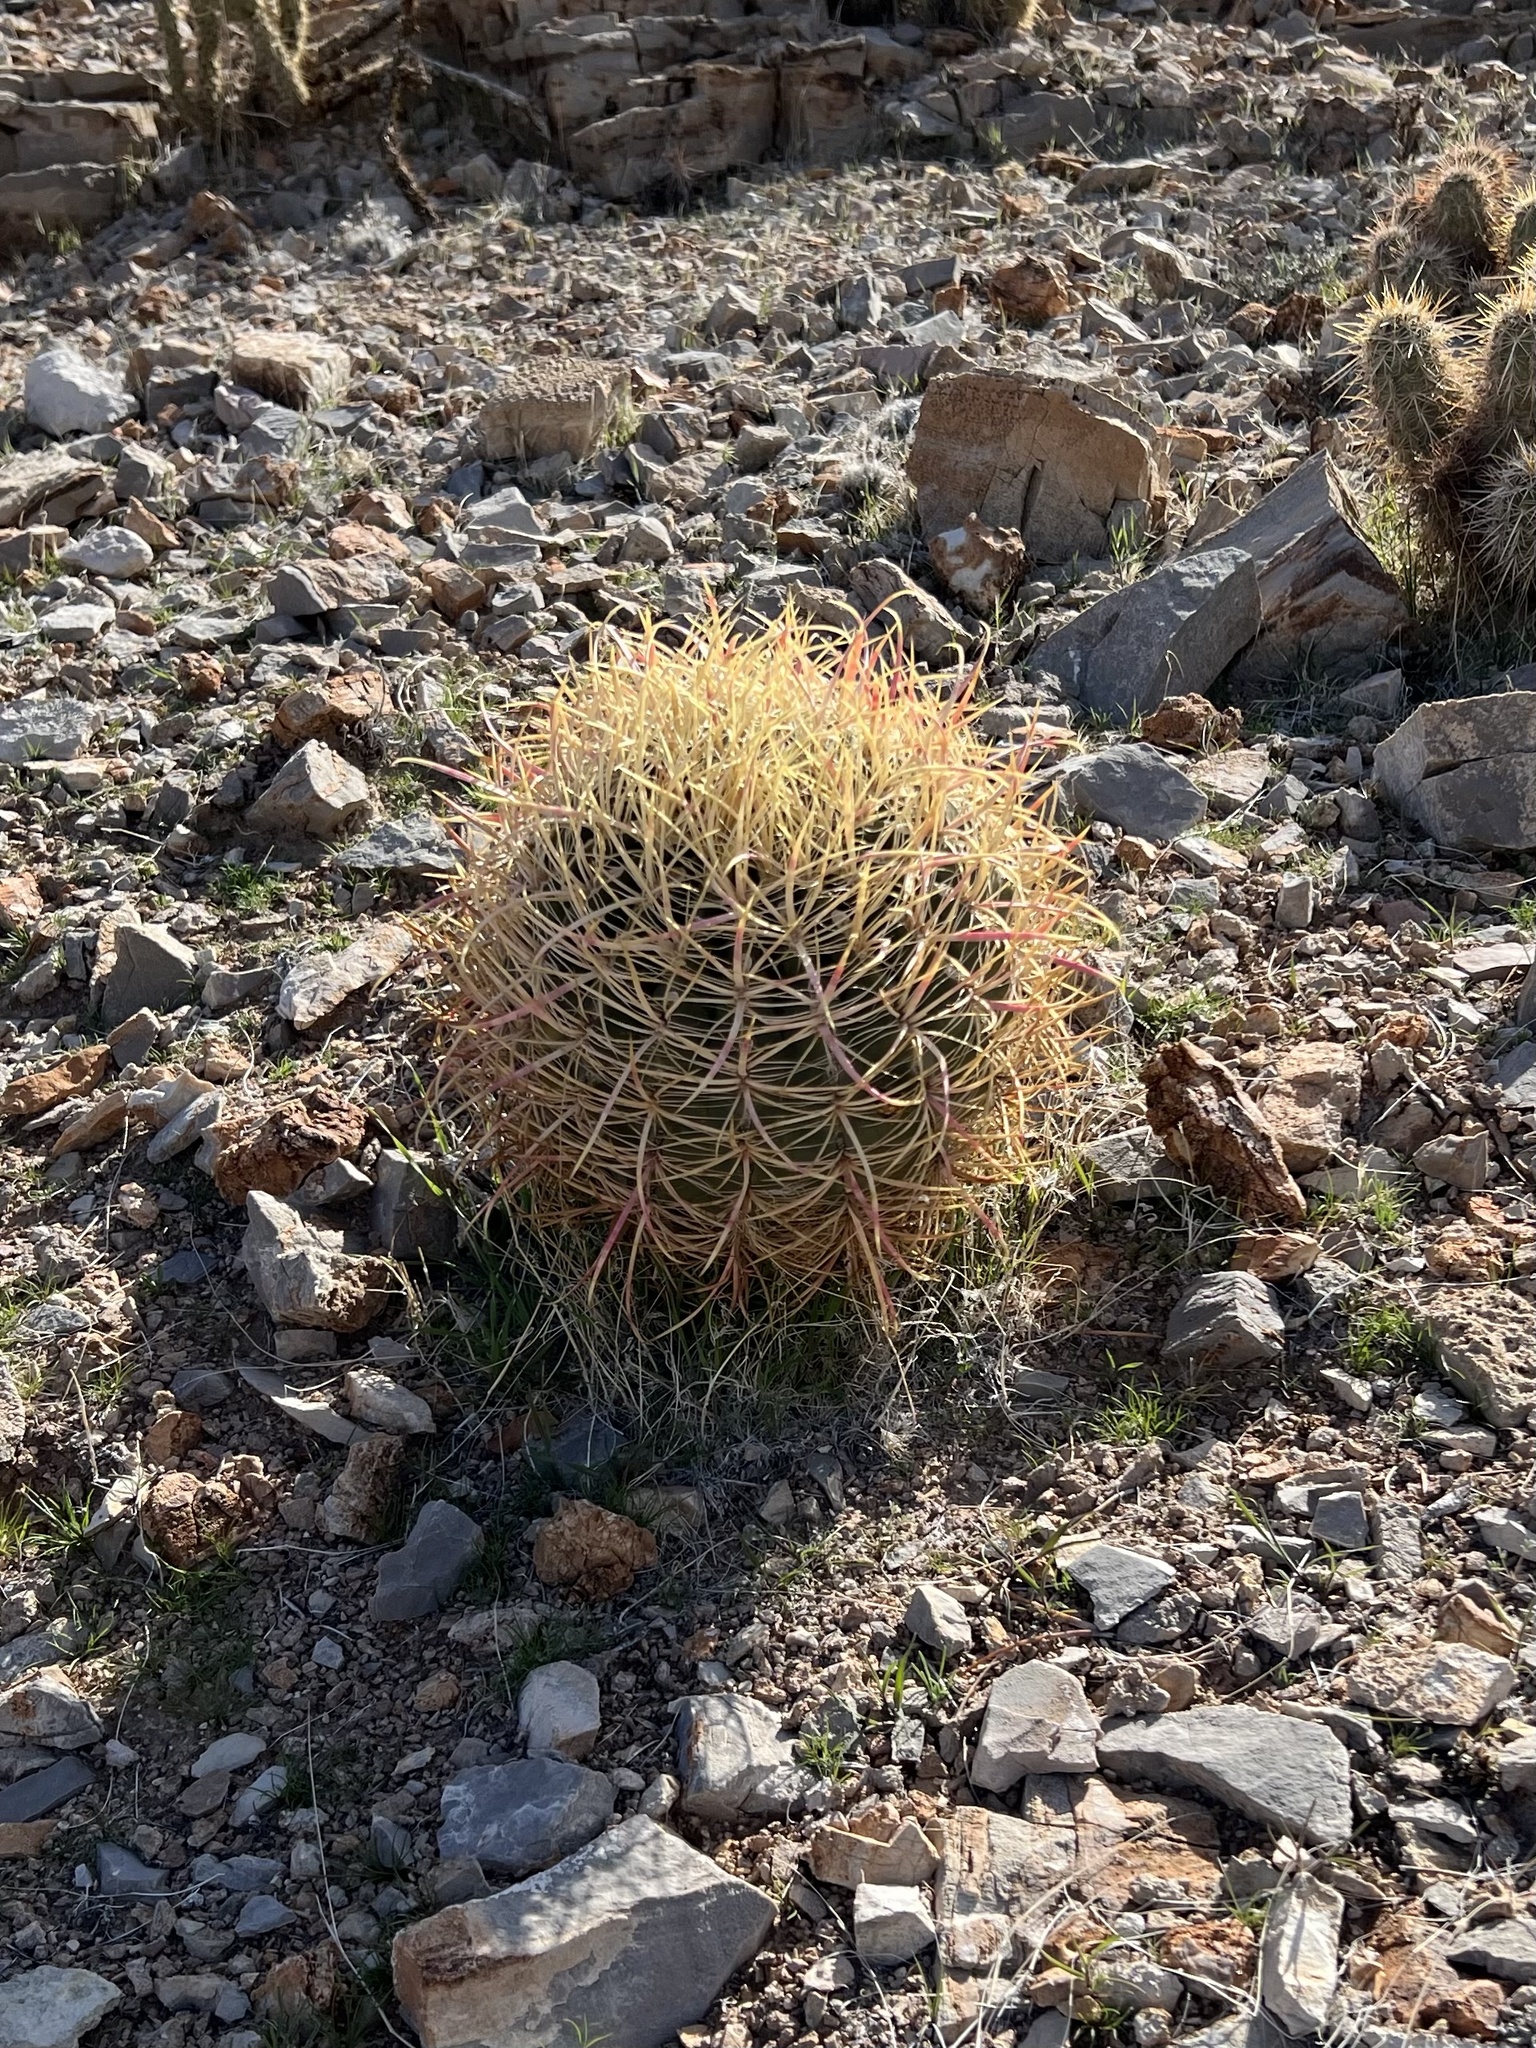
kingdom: Plantae
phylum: Tracheophyta
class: Magnoliopsida
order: Caryophyllales
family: Cactaceae
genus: Ferocactus
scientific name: Ferocactus cylindraceus
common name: California barrel cactus
